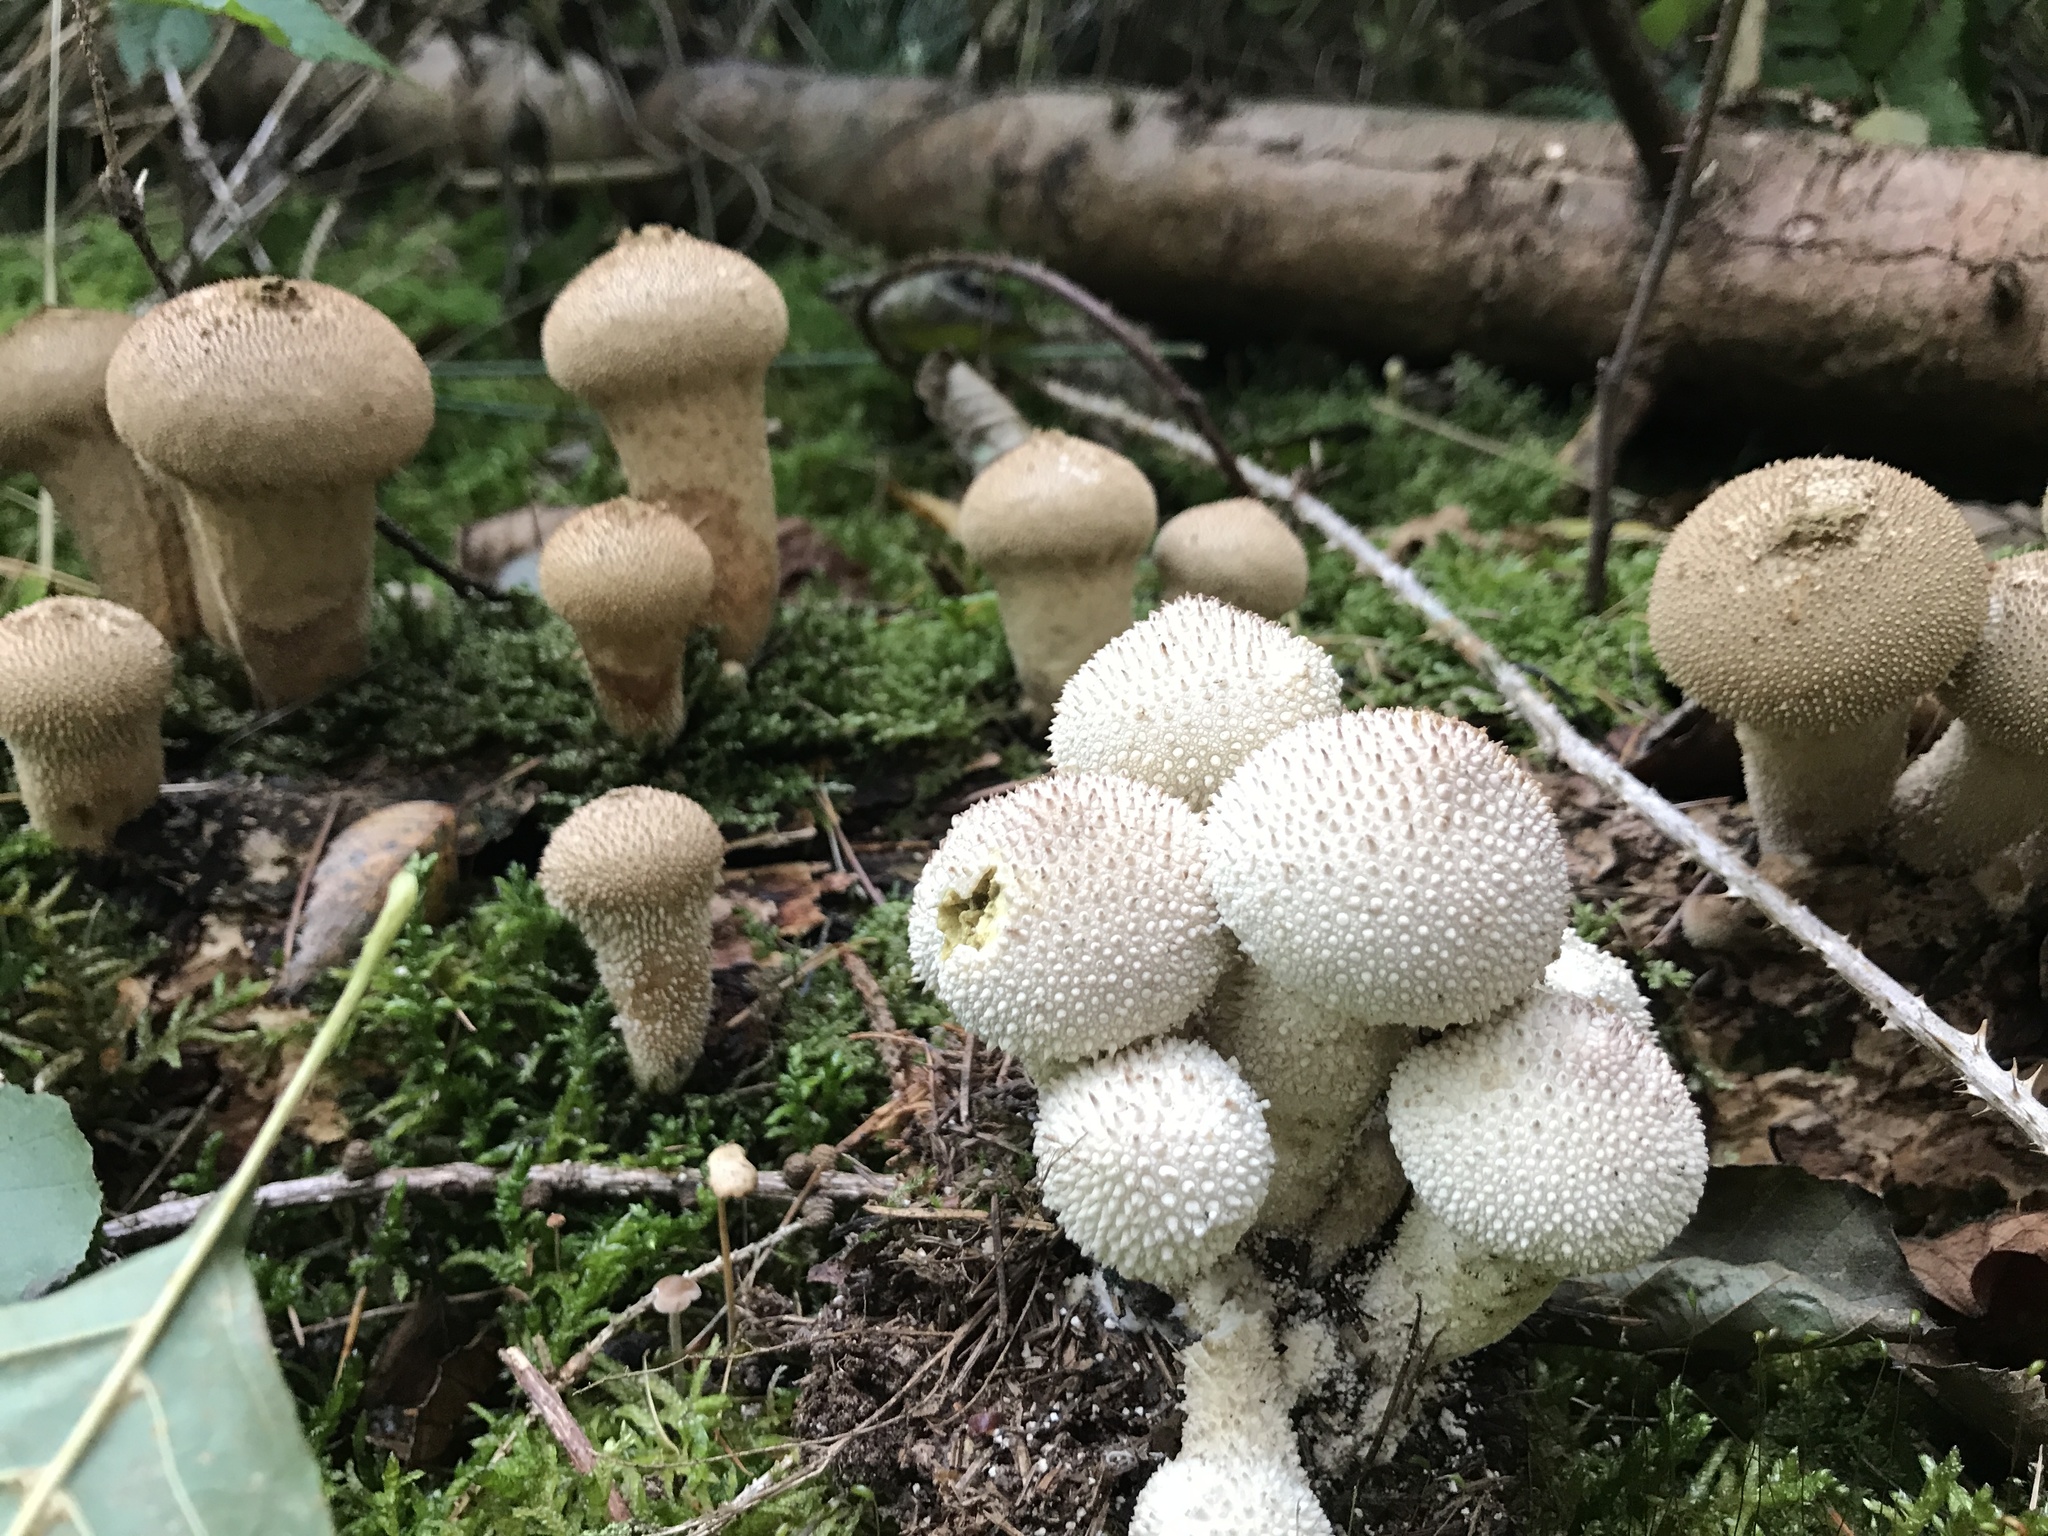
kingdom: Fungi
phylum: Basidiomycota
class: Agaricomycetes
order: Agaricales
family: Lycoperdaceae
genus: Lycoperdon
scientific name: Lycoperdon perlatum
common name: Common puffball
